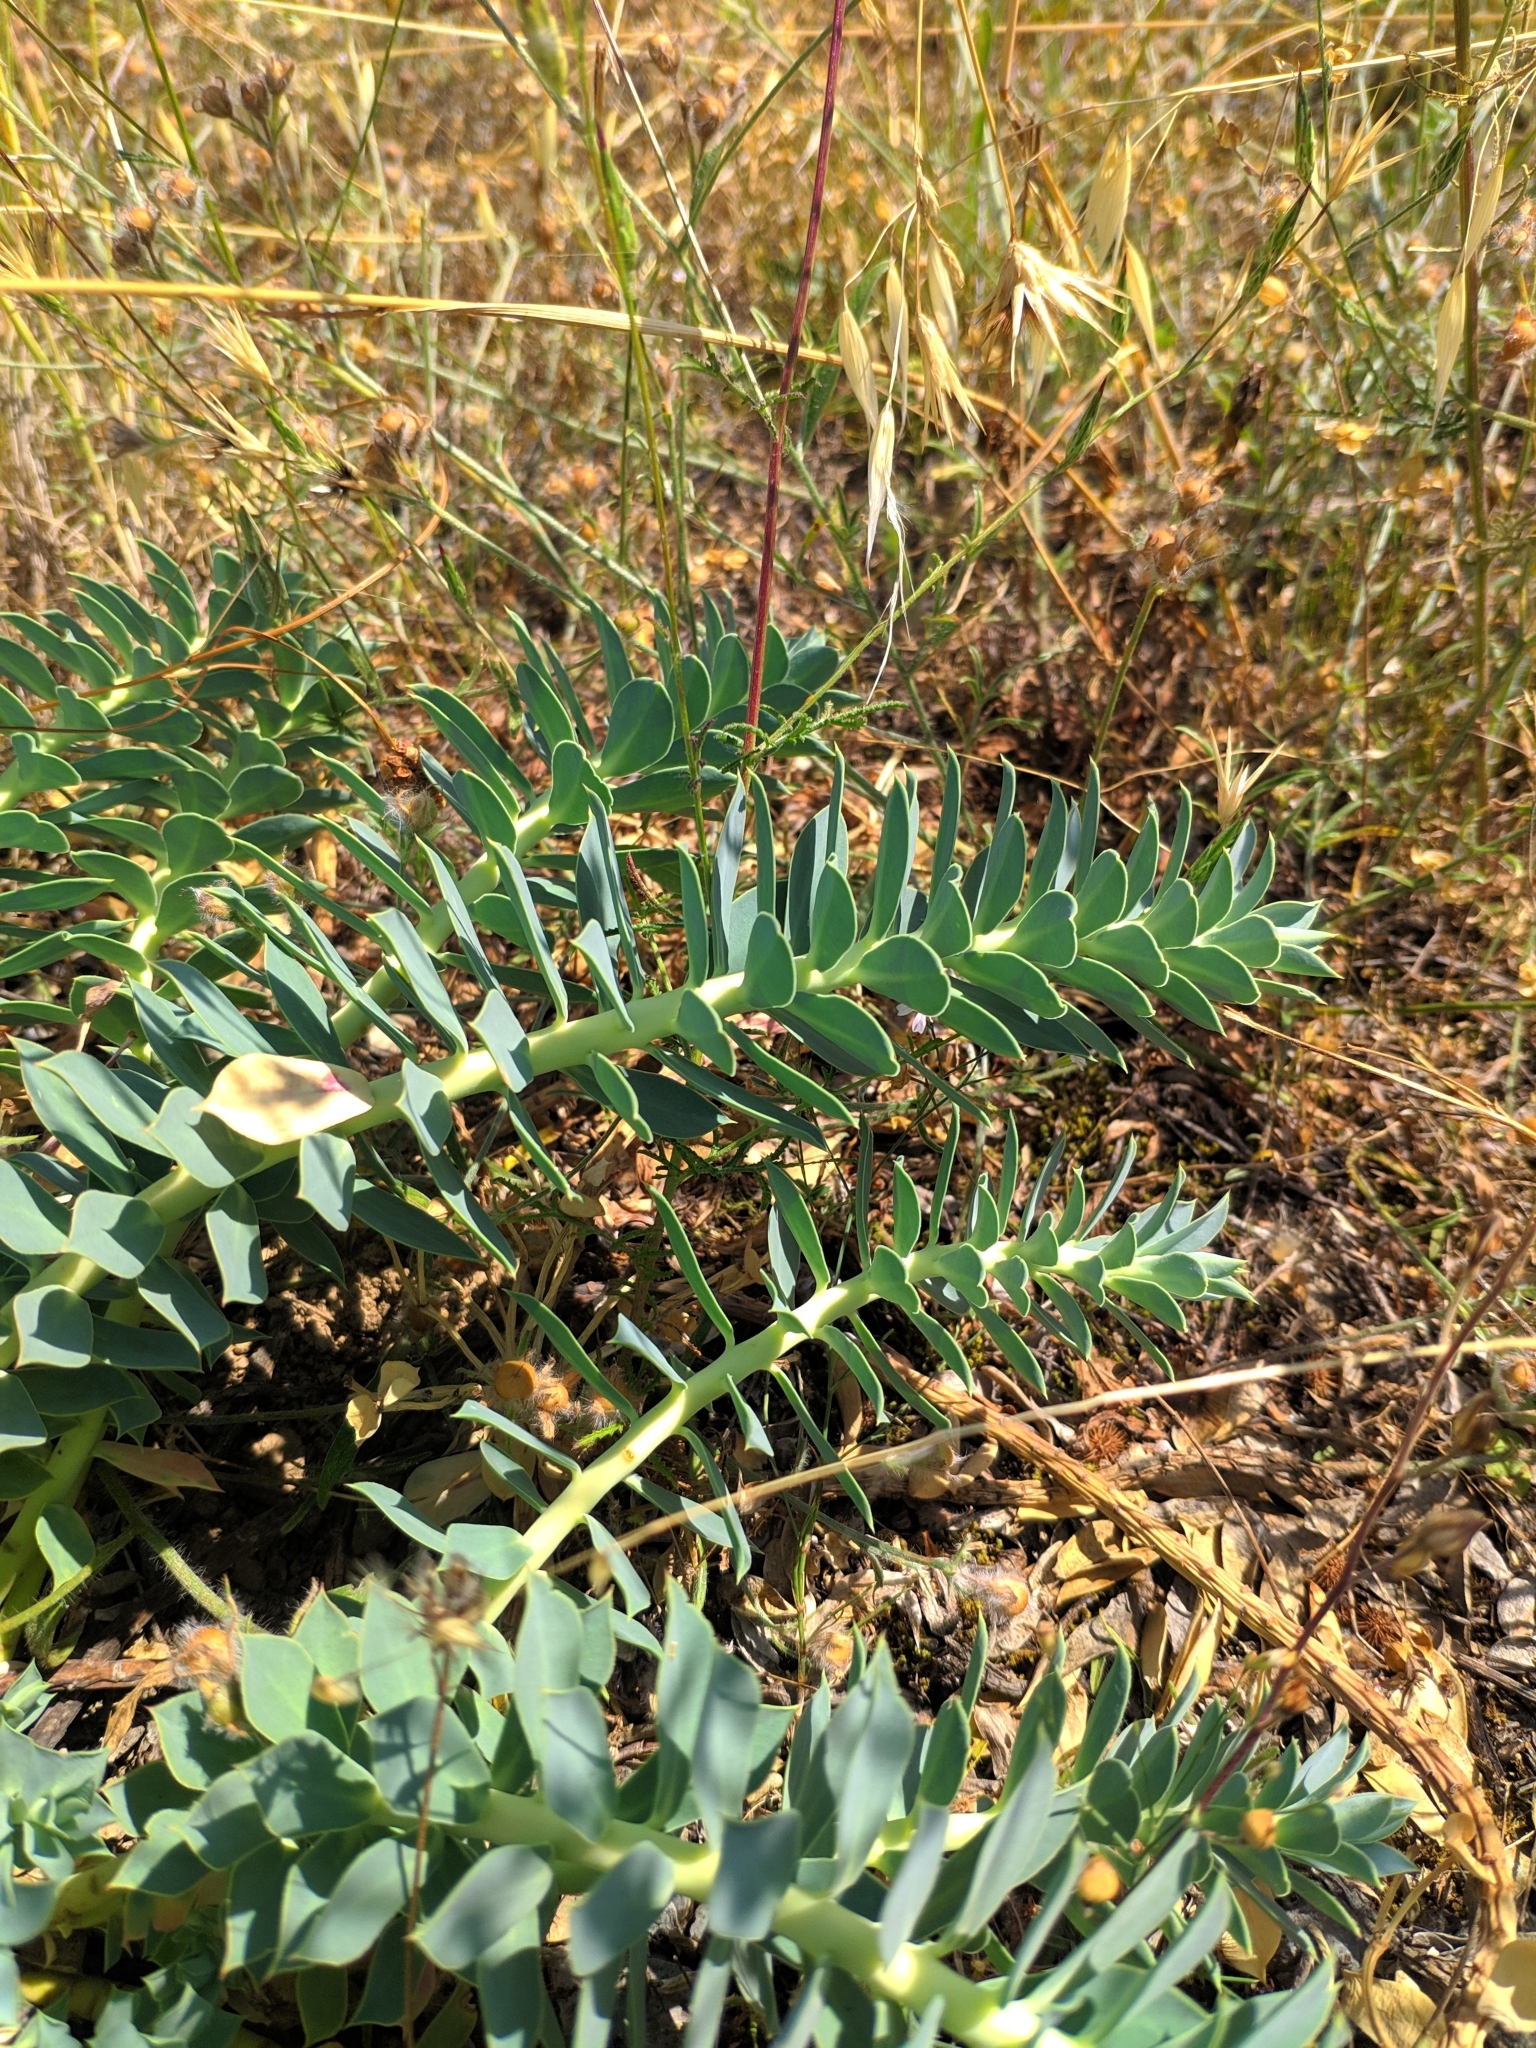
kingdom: Plantae
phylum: Tracheophyta
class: Magnoliopsida
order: Malpighiales
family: Euphorbiaceae
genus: Euphorbia
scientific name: Euphorbia myrsinites
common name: Myrtle spurge
